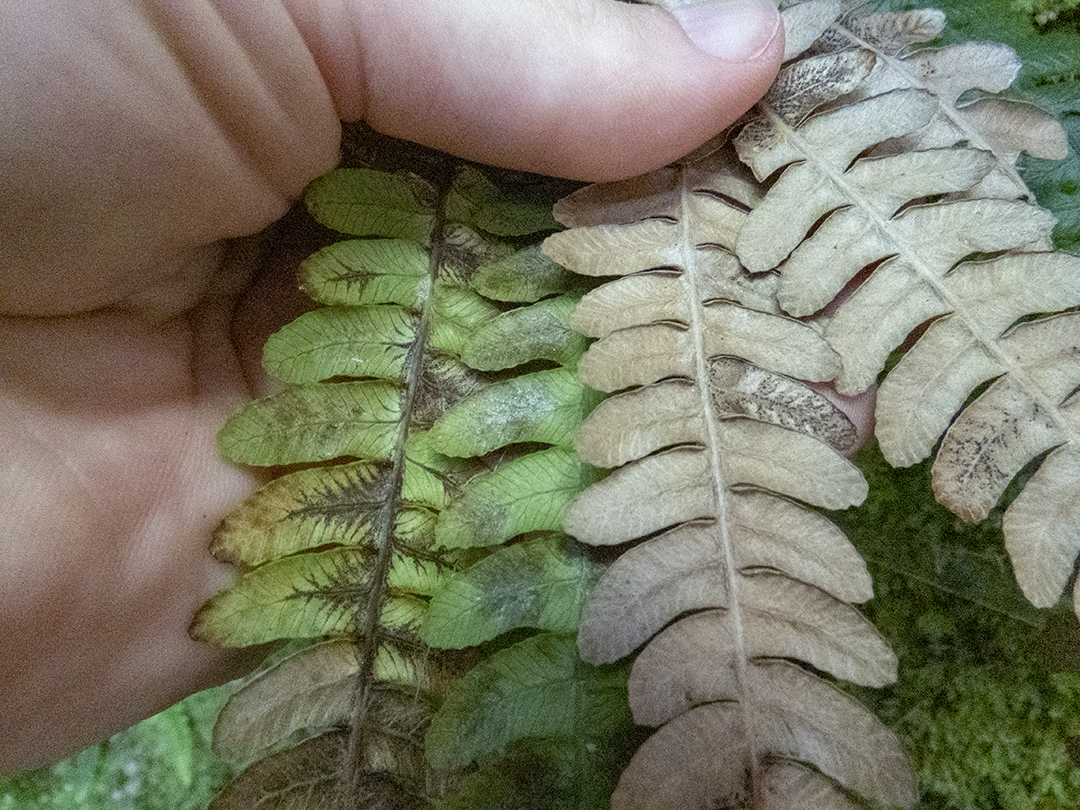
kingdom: Plantae
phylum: Tracheophyta
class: Polypodiopsida
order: Polypodiales
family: Blechnaceae
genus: Austroblechnum
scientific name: Austroblechnum lanceolatum
